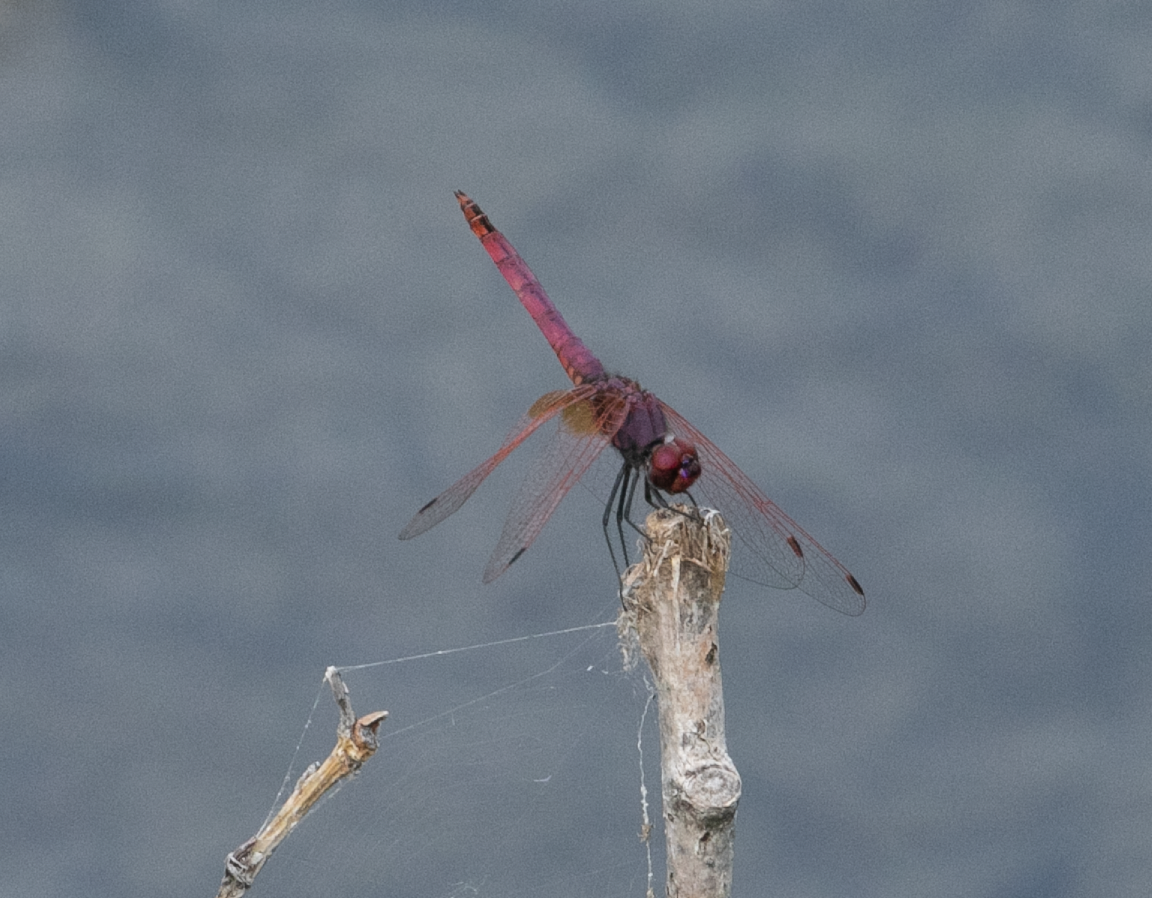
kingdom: Animalia
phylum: Arthropoda
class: Insecta
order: Odonata
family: Libellulidae
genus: Trithemis
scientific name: Trithemis annulata
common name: Violet dropwing
